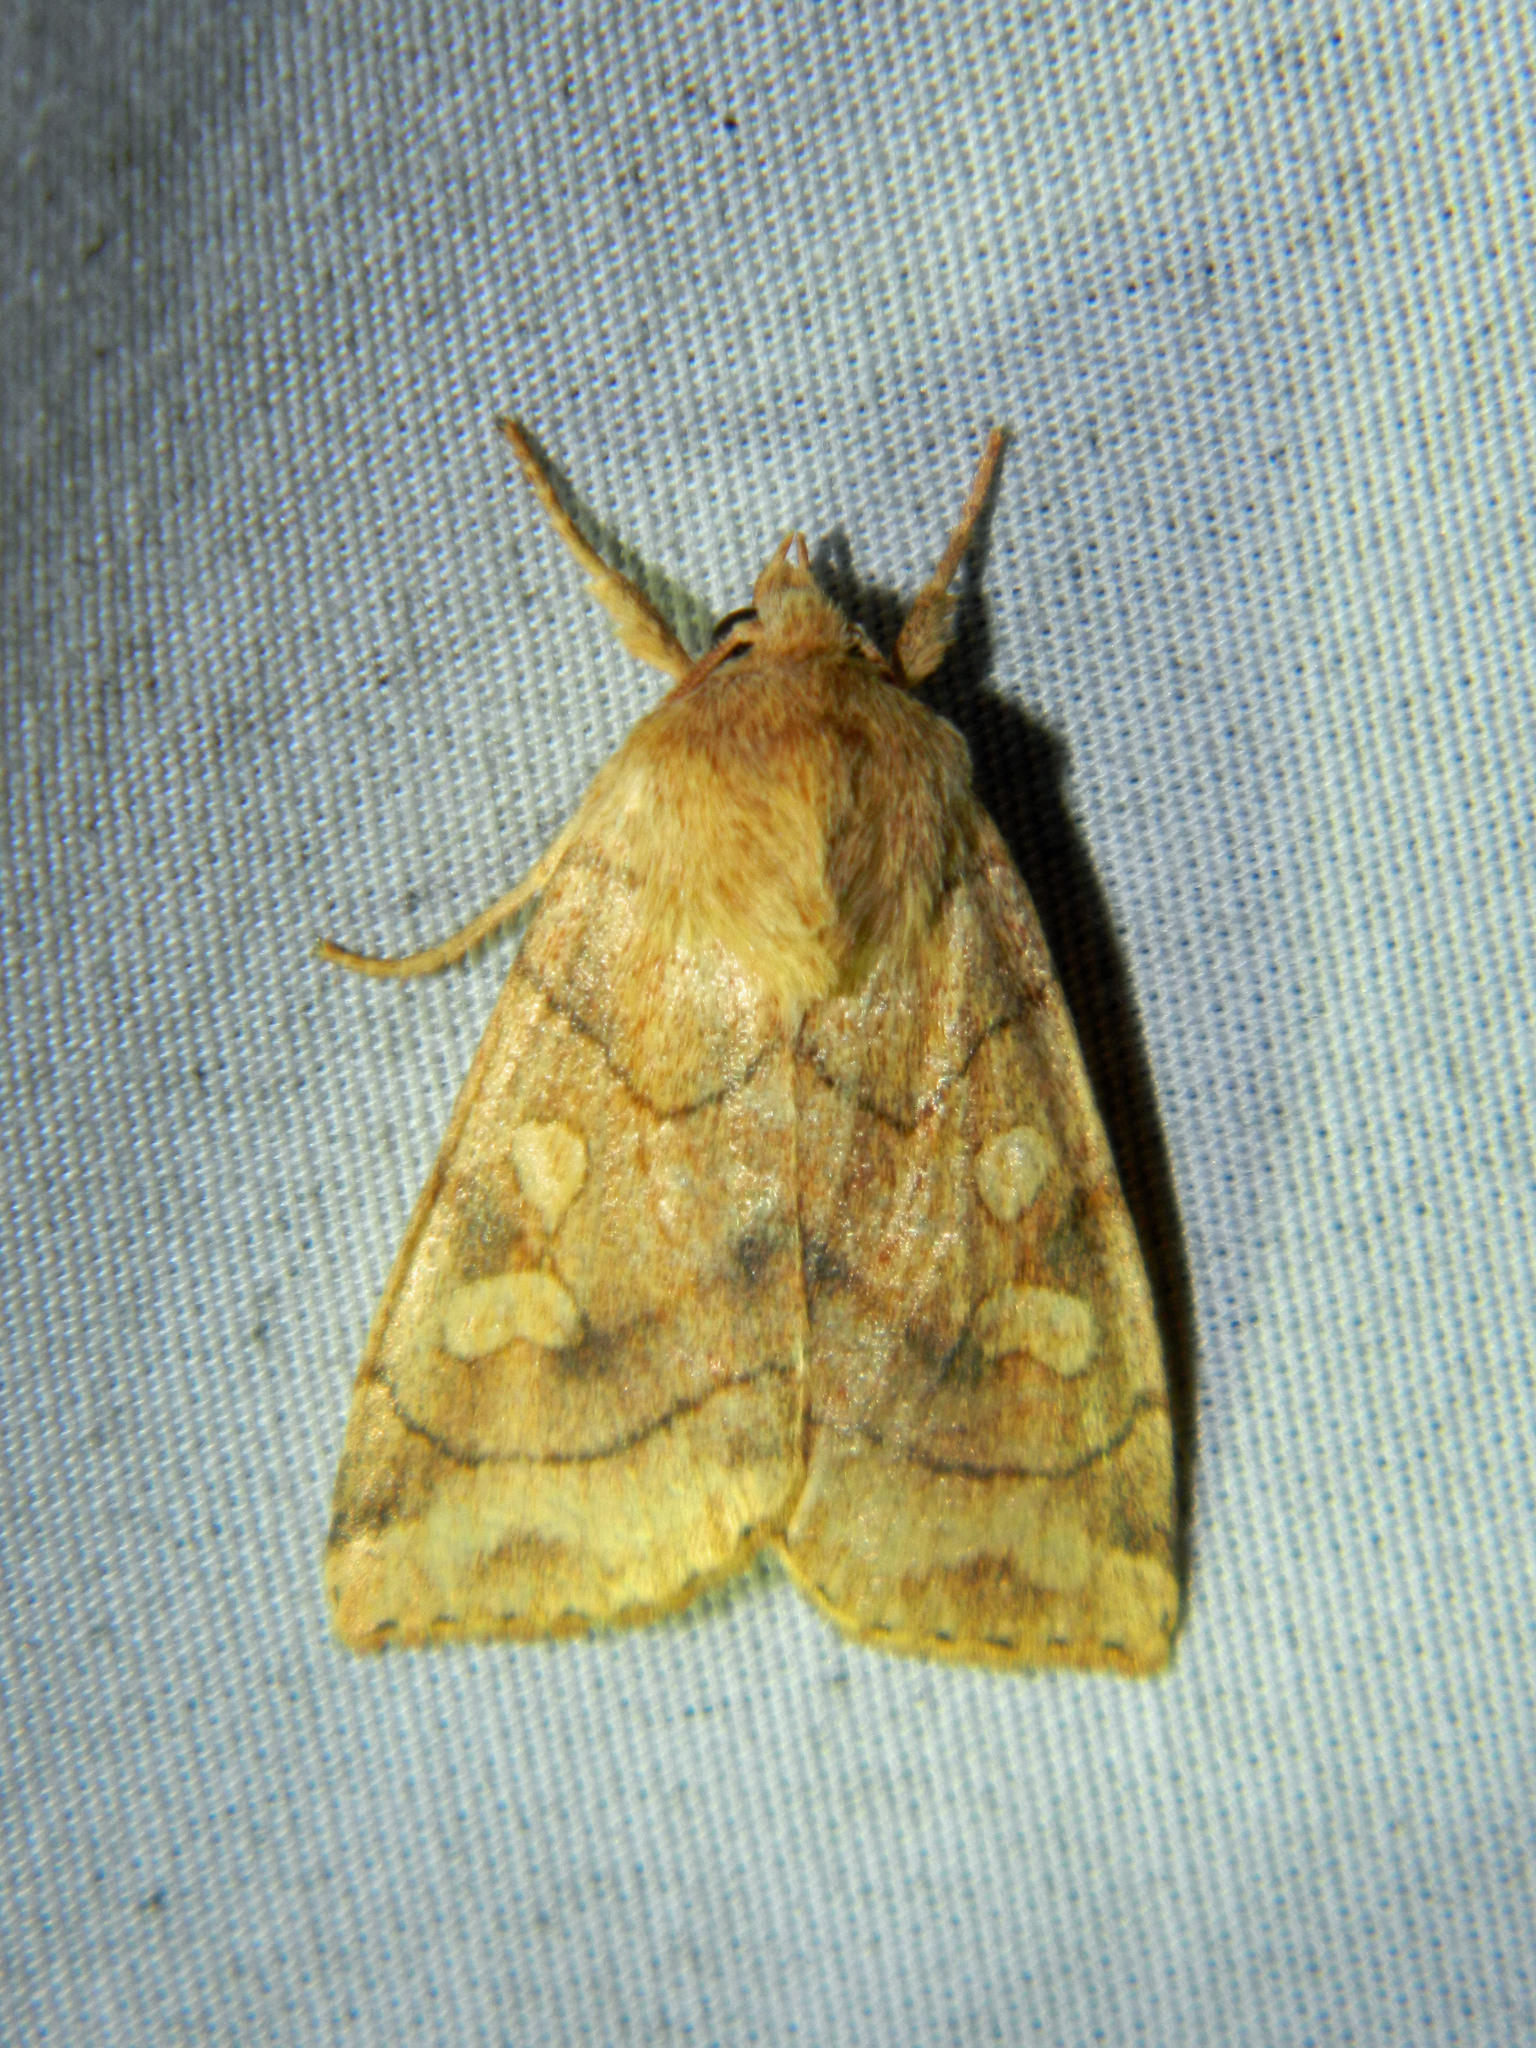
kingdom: Animalia
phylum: Arthropoda
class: Insecta
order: Lepidoptera
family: Noctuidae
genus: Enargia
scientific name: Enargia decolor
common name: Aspen twoleaf tier moth
